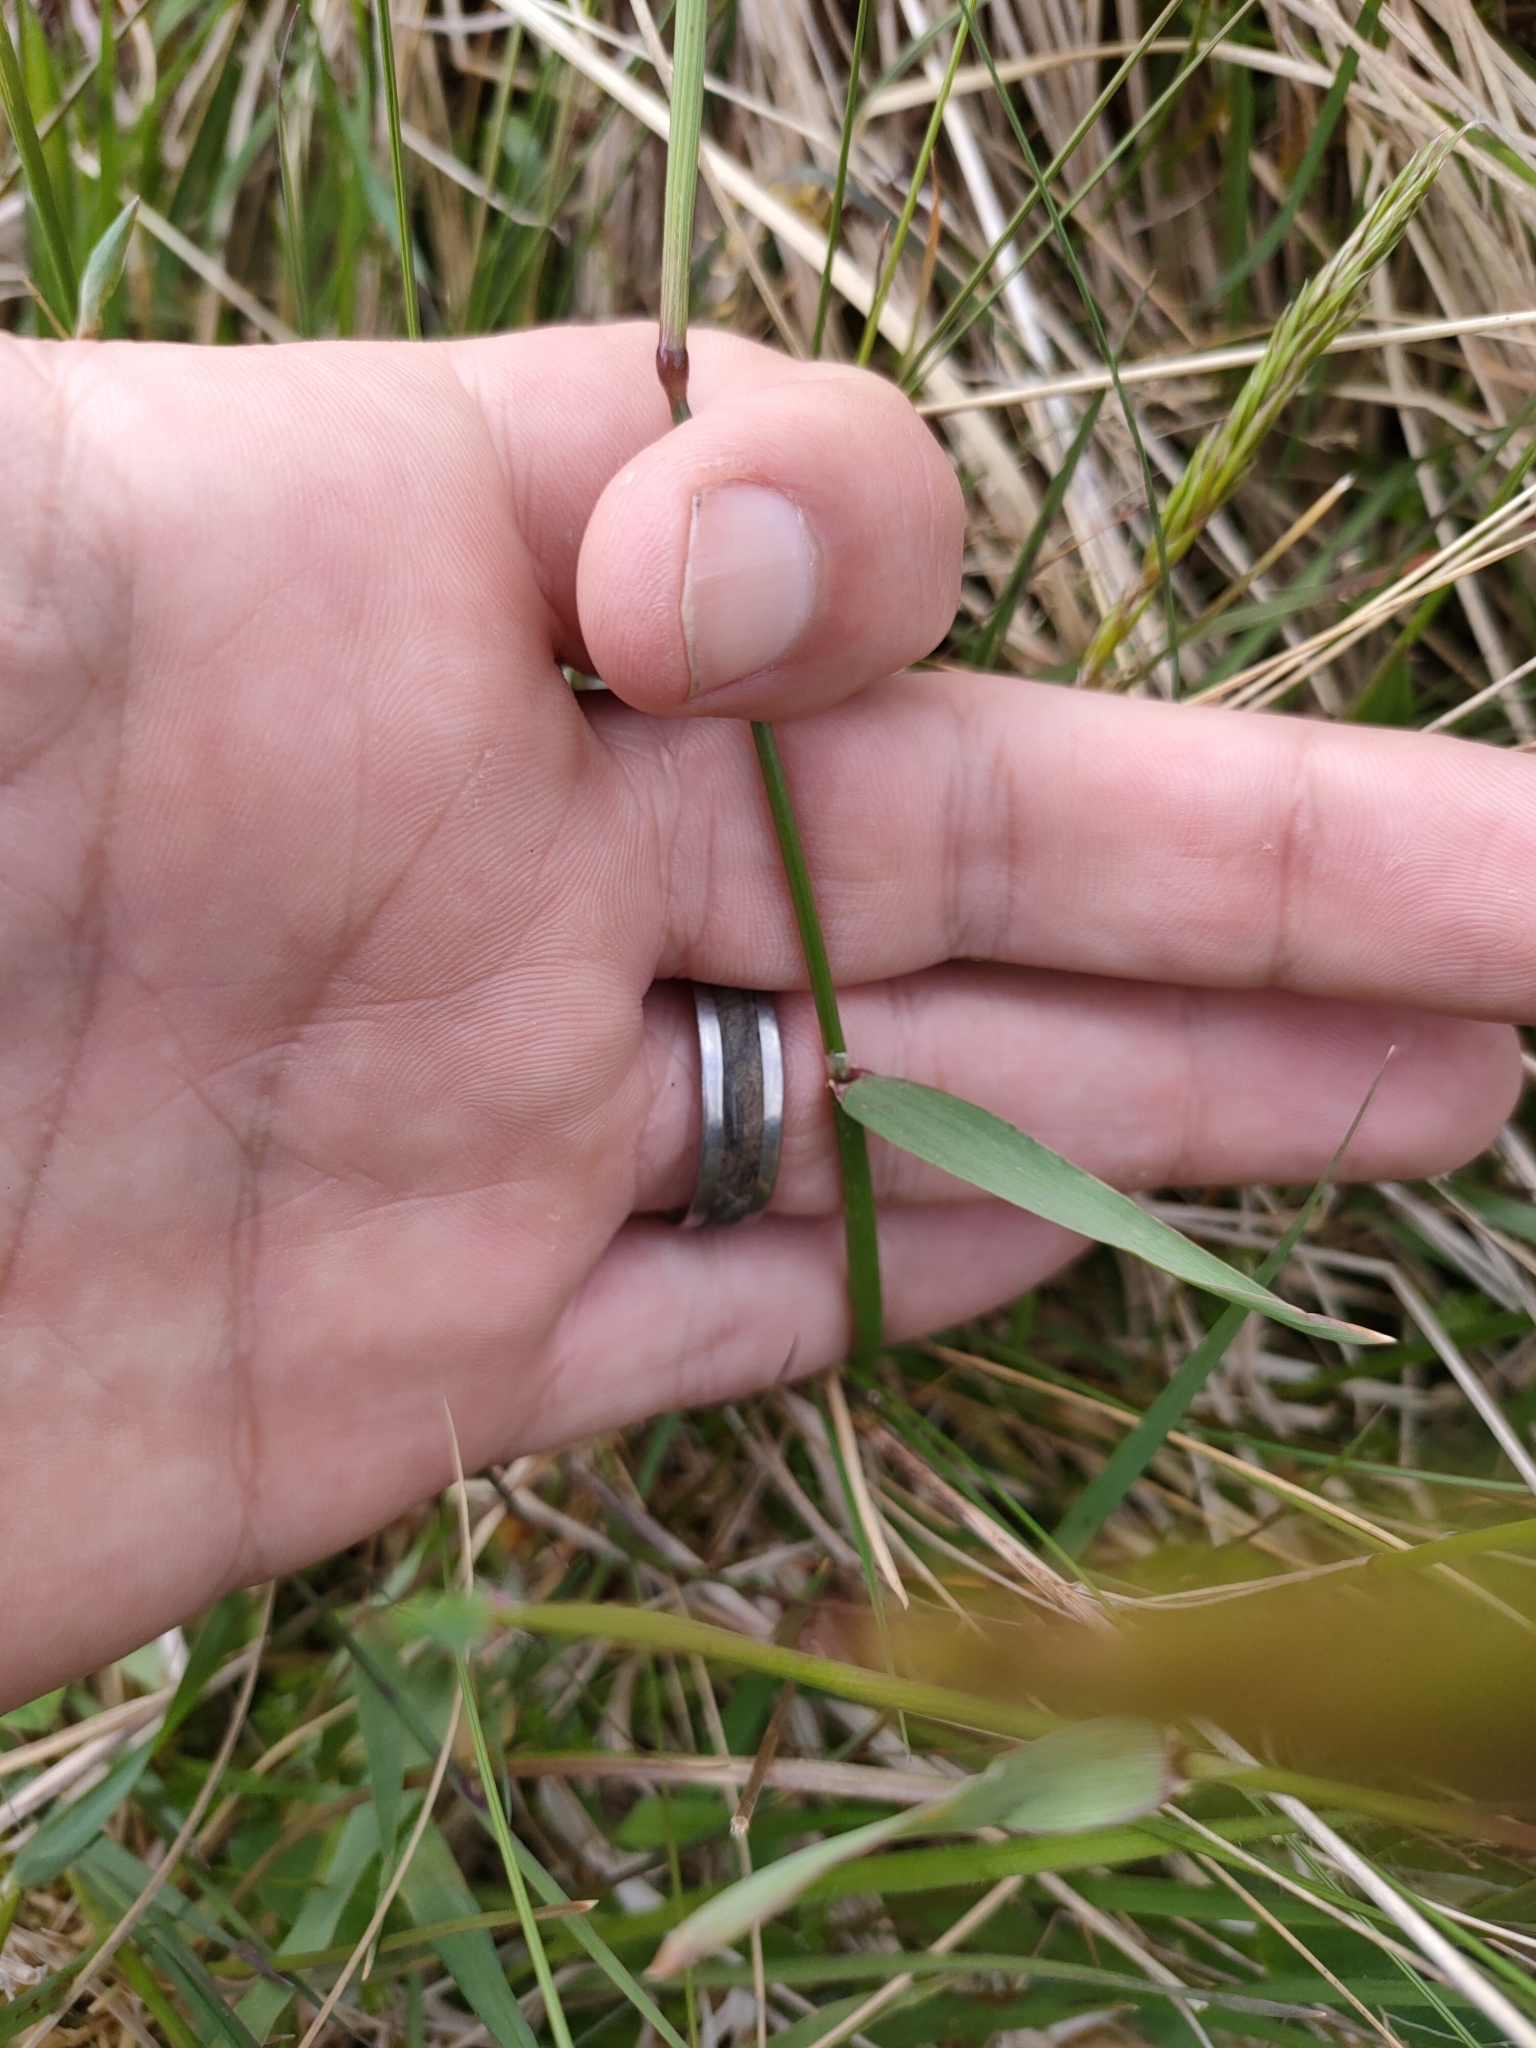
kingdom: Plantae
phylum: Tracheophyta
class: Liliopsida
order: Poales
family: Poaceae
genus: Anthoxanthum
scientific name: Anthoxanthum odoratum
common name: Sweet vernalgrass
